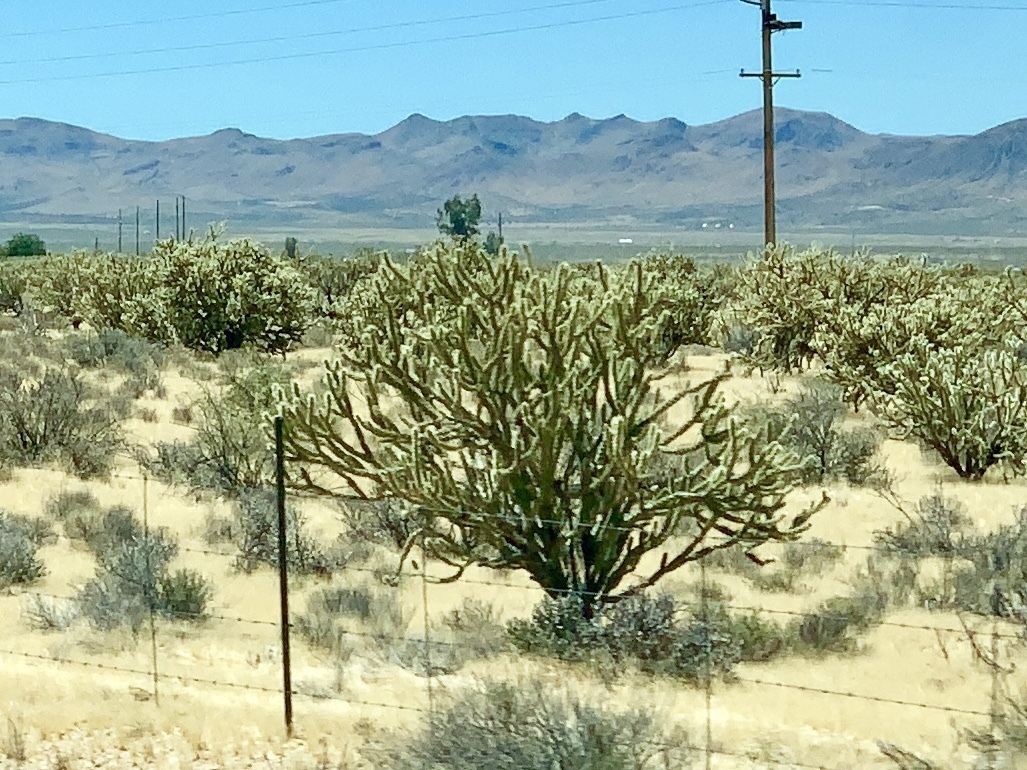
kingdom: Plantae
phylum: Tracheophyta
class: Magnoliopsida
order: Caryophyllales
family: Cactaceae
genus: Cylindropuntia
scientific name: Cylindropuntia acanthocarpa
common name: Buckhorn cholla
